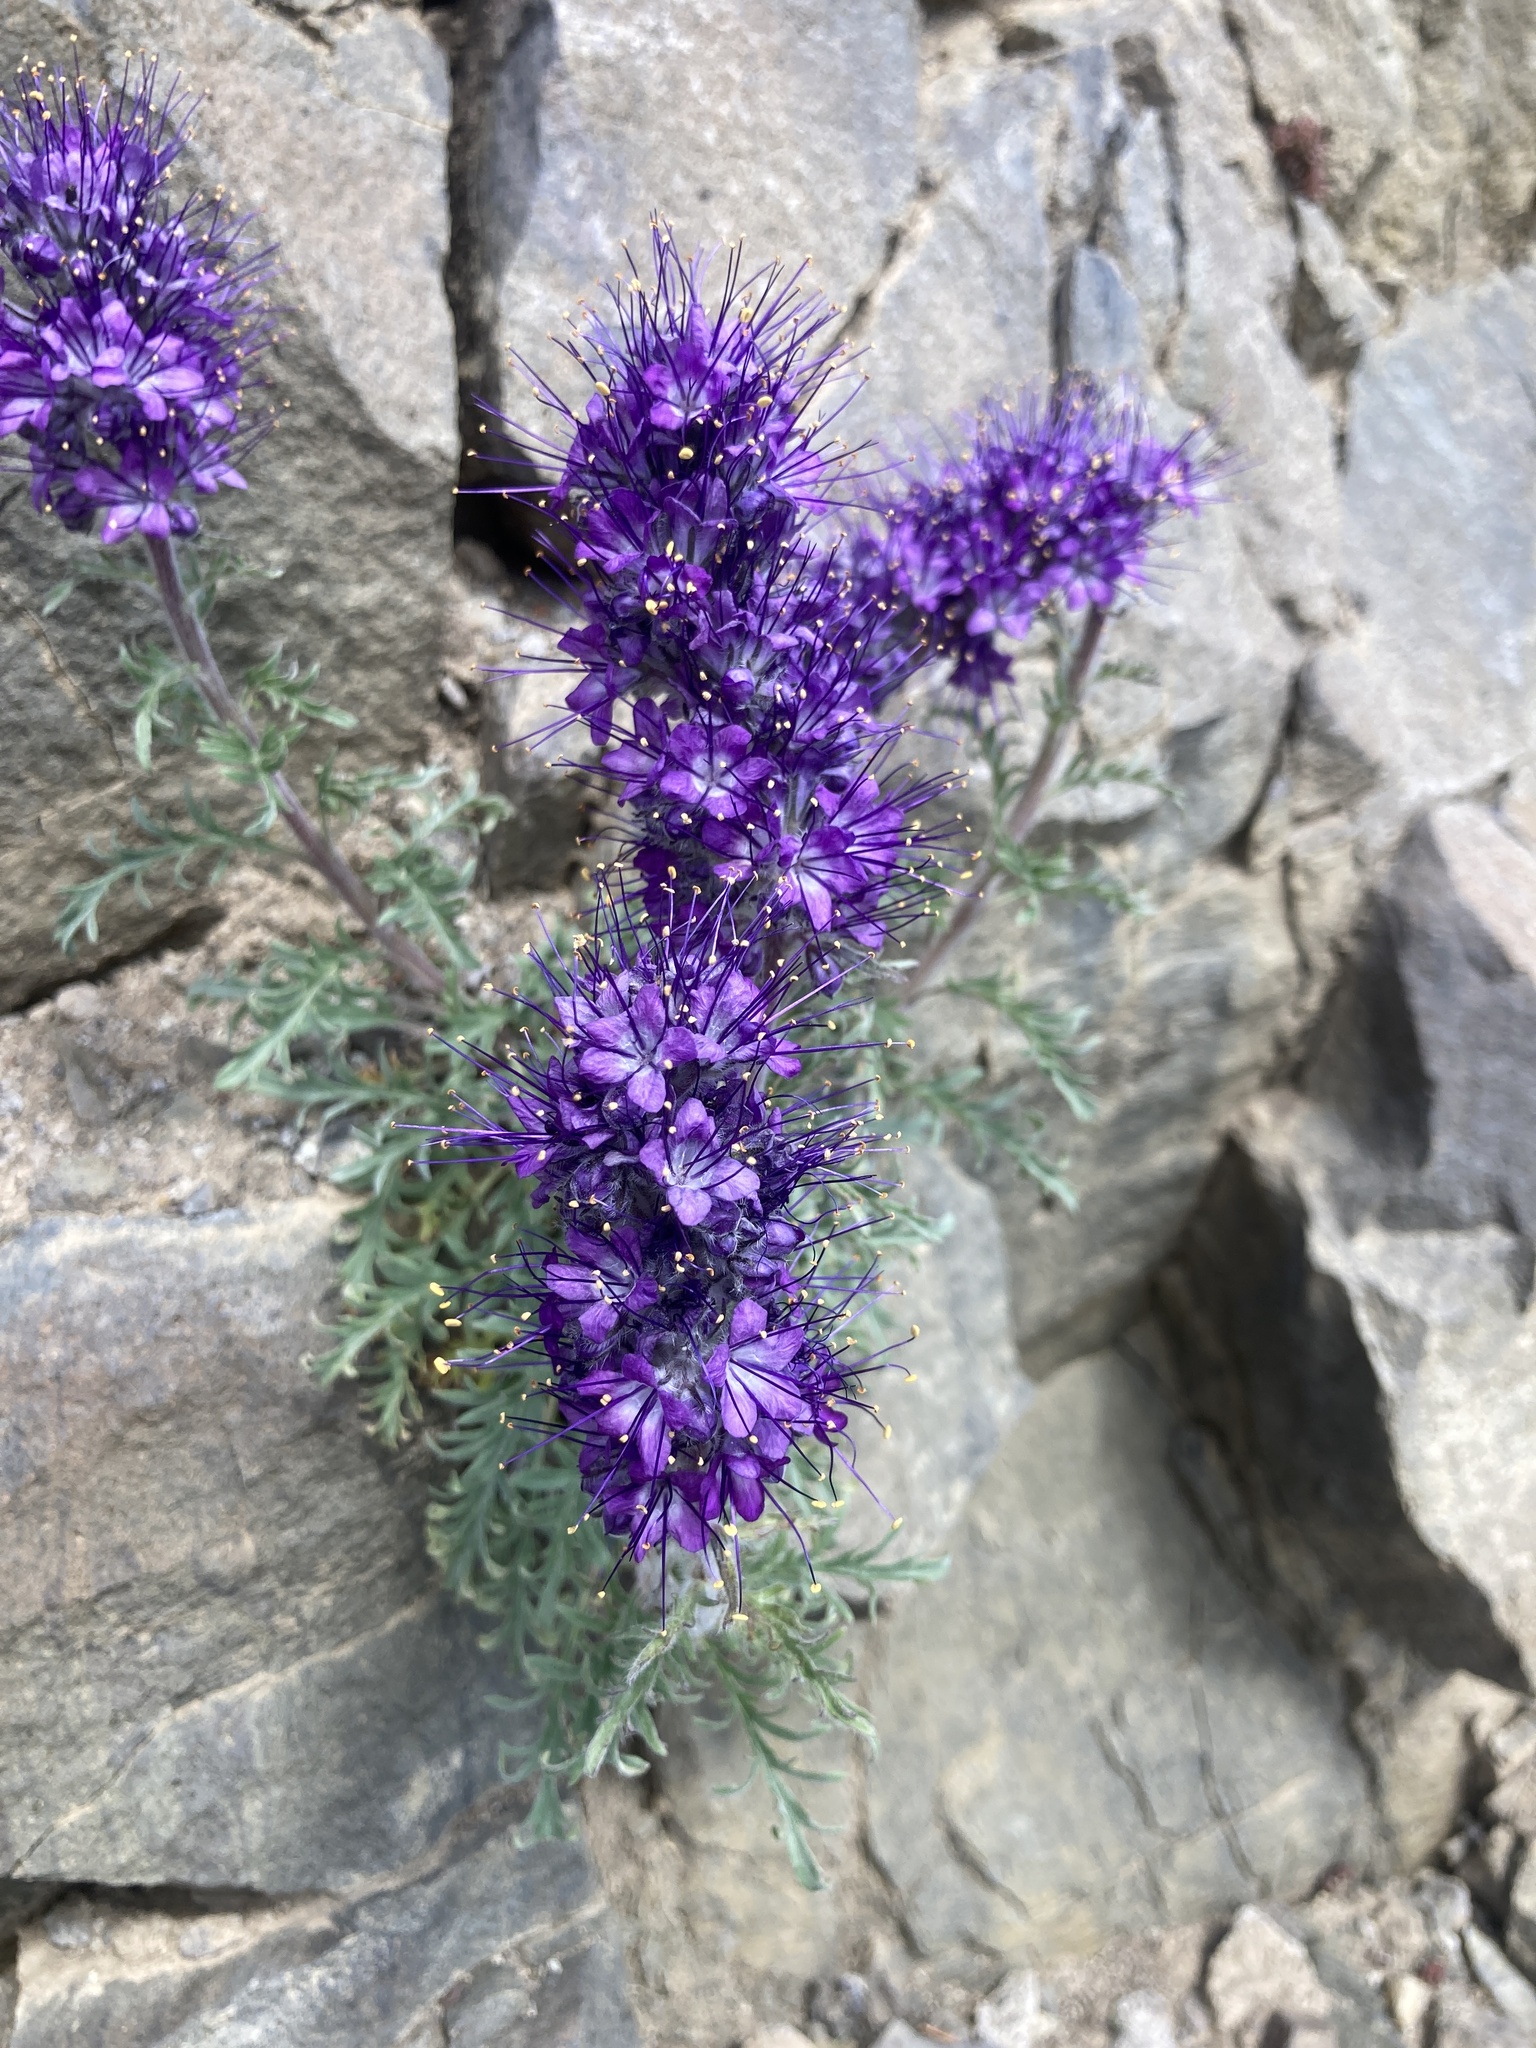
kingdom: Plantae
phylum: Tracheophyta
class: Magnoliopsida
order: Boraginales
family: Hydrophyllaceae
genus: Phacelia
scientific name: Phacelia sericea
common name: Silky phacelia
